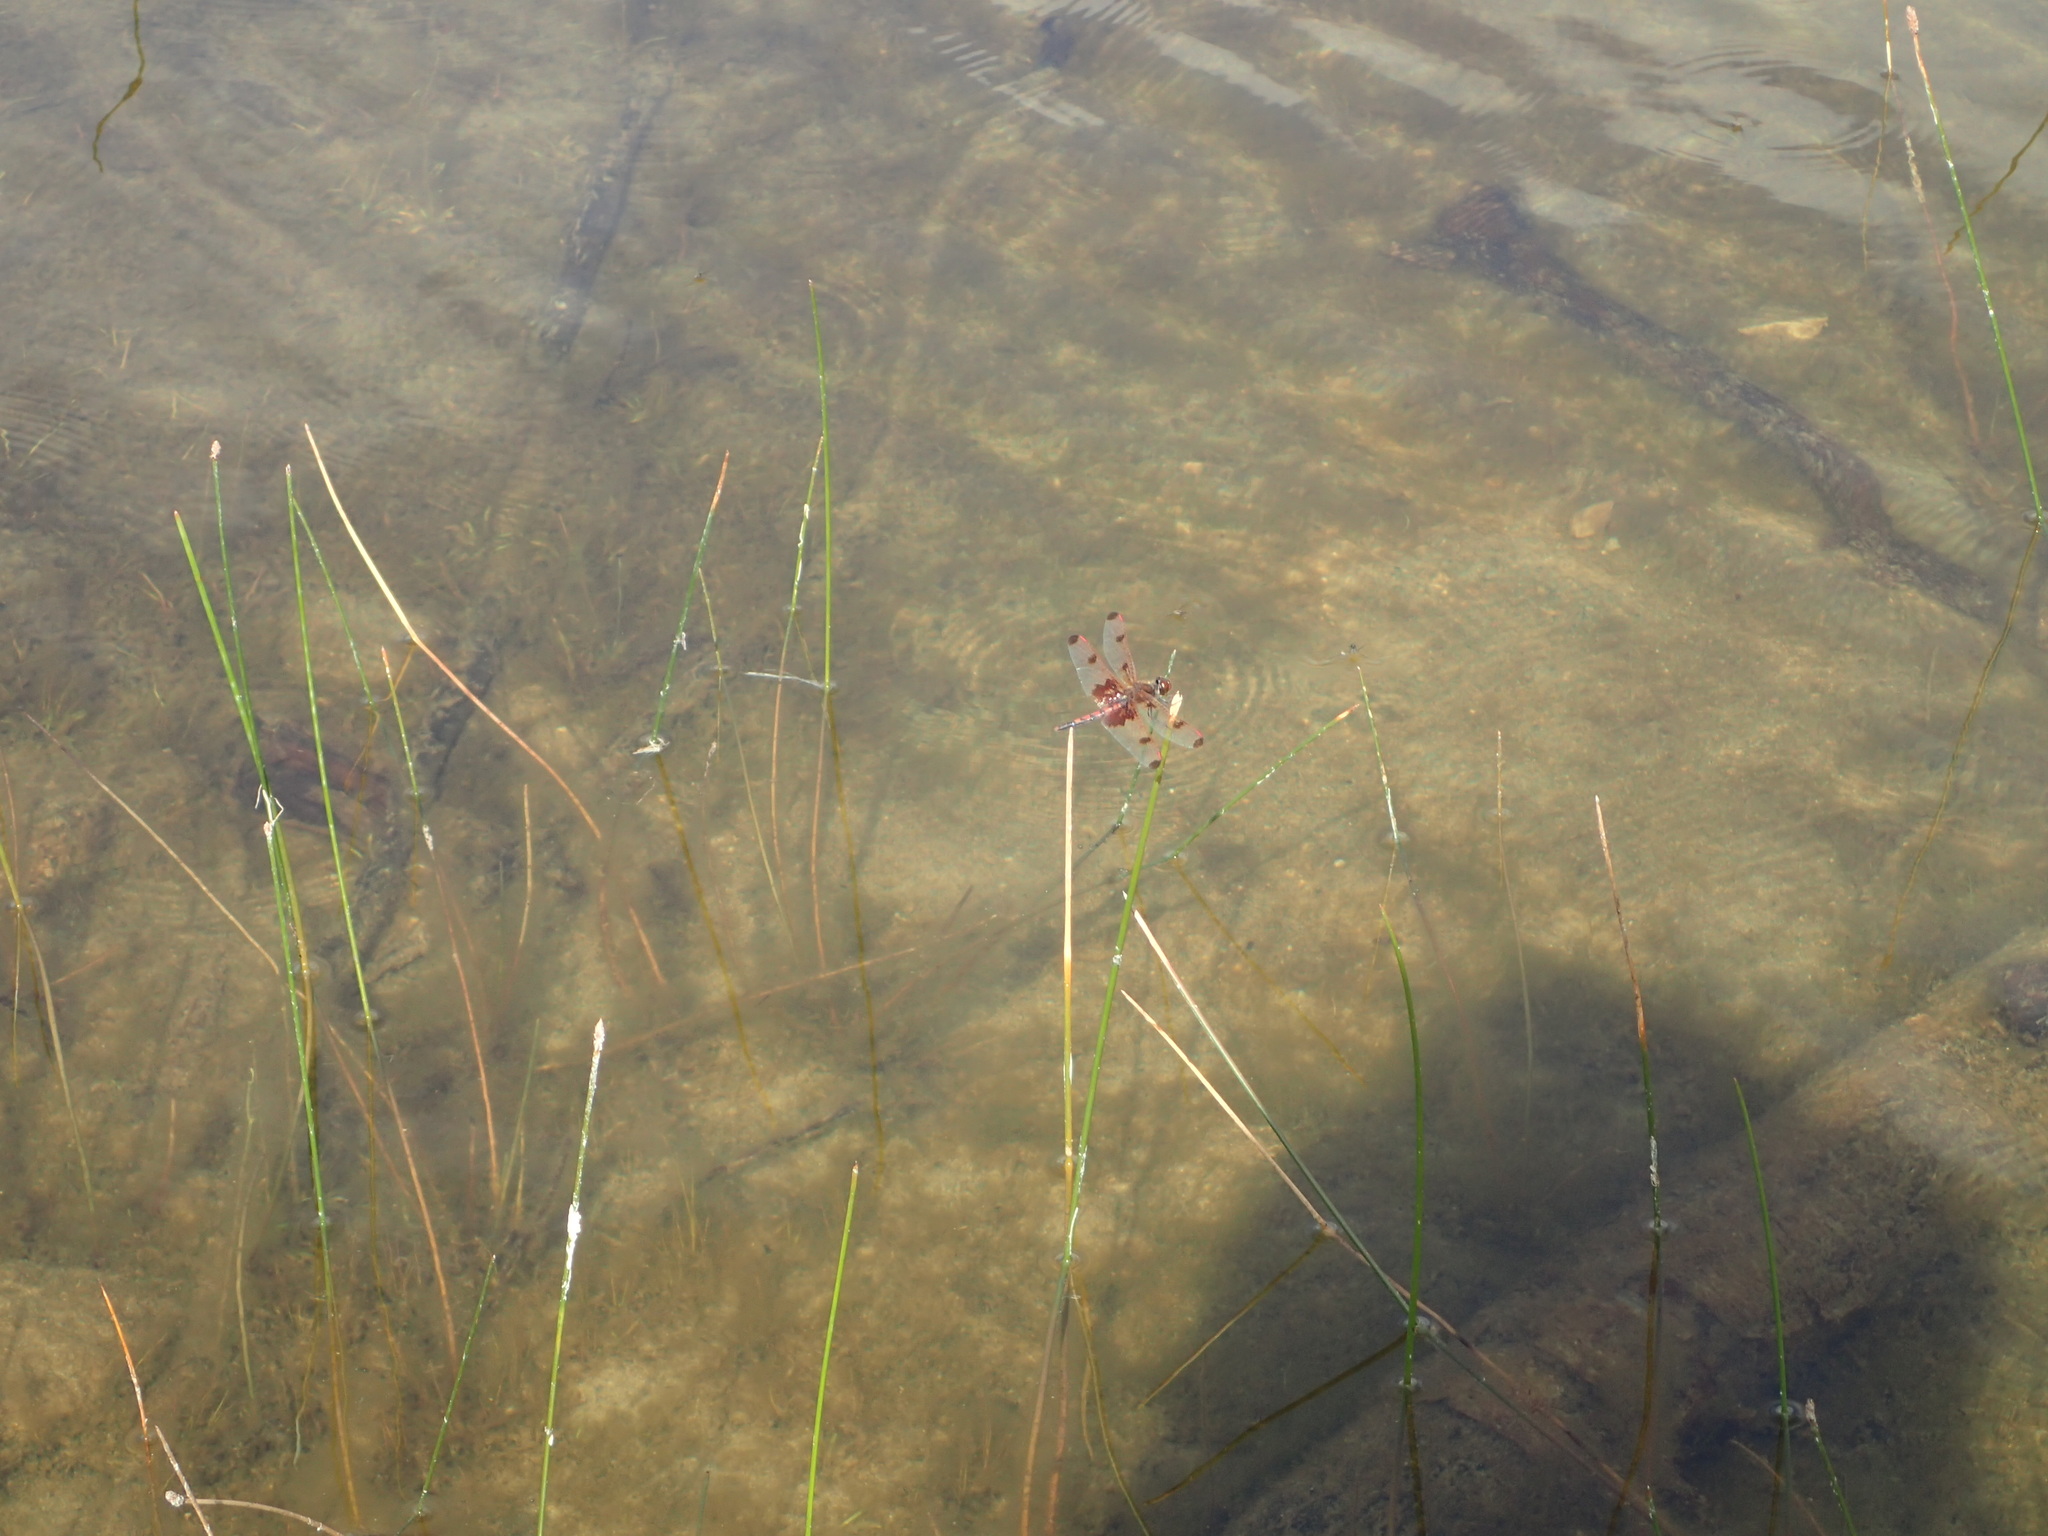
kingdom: Animalia
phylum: Arthropoda
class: Insecta
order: Odonata
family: Libellulidae
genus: Celithemis
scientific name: Celithemis elisa
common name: Calico pennant
